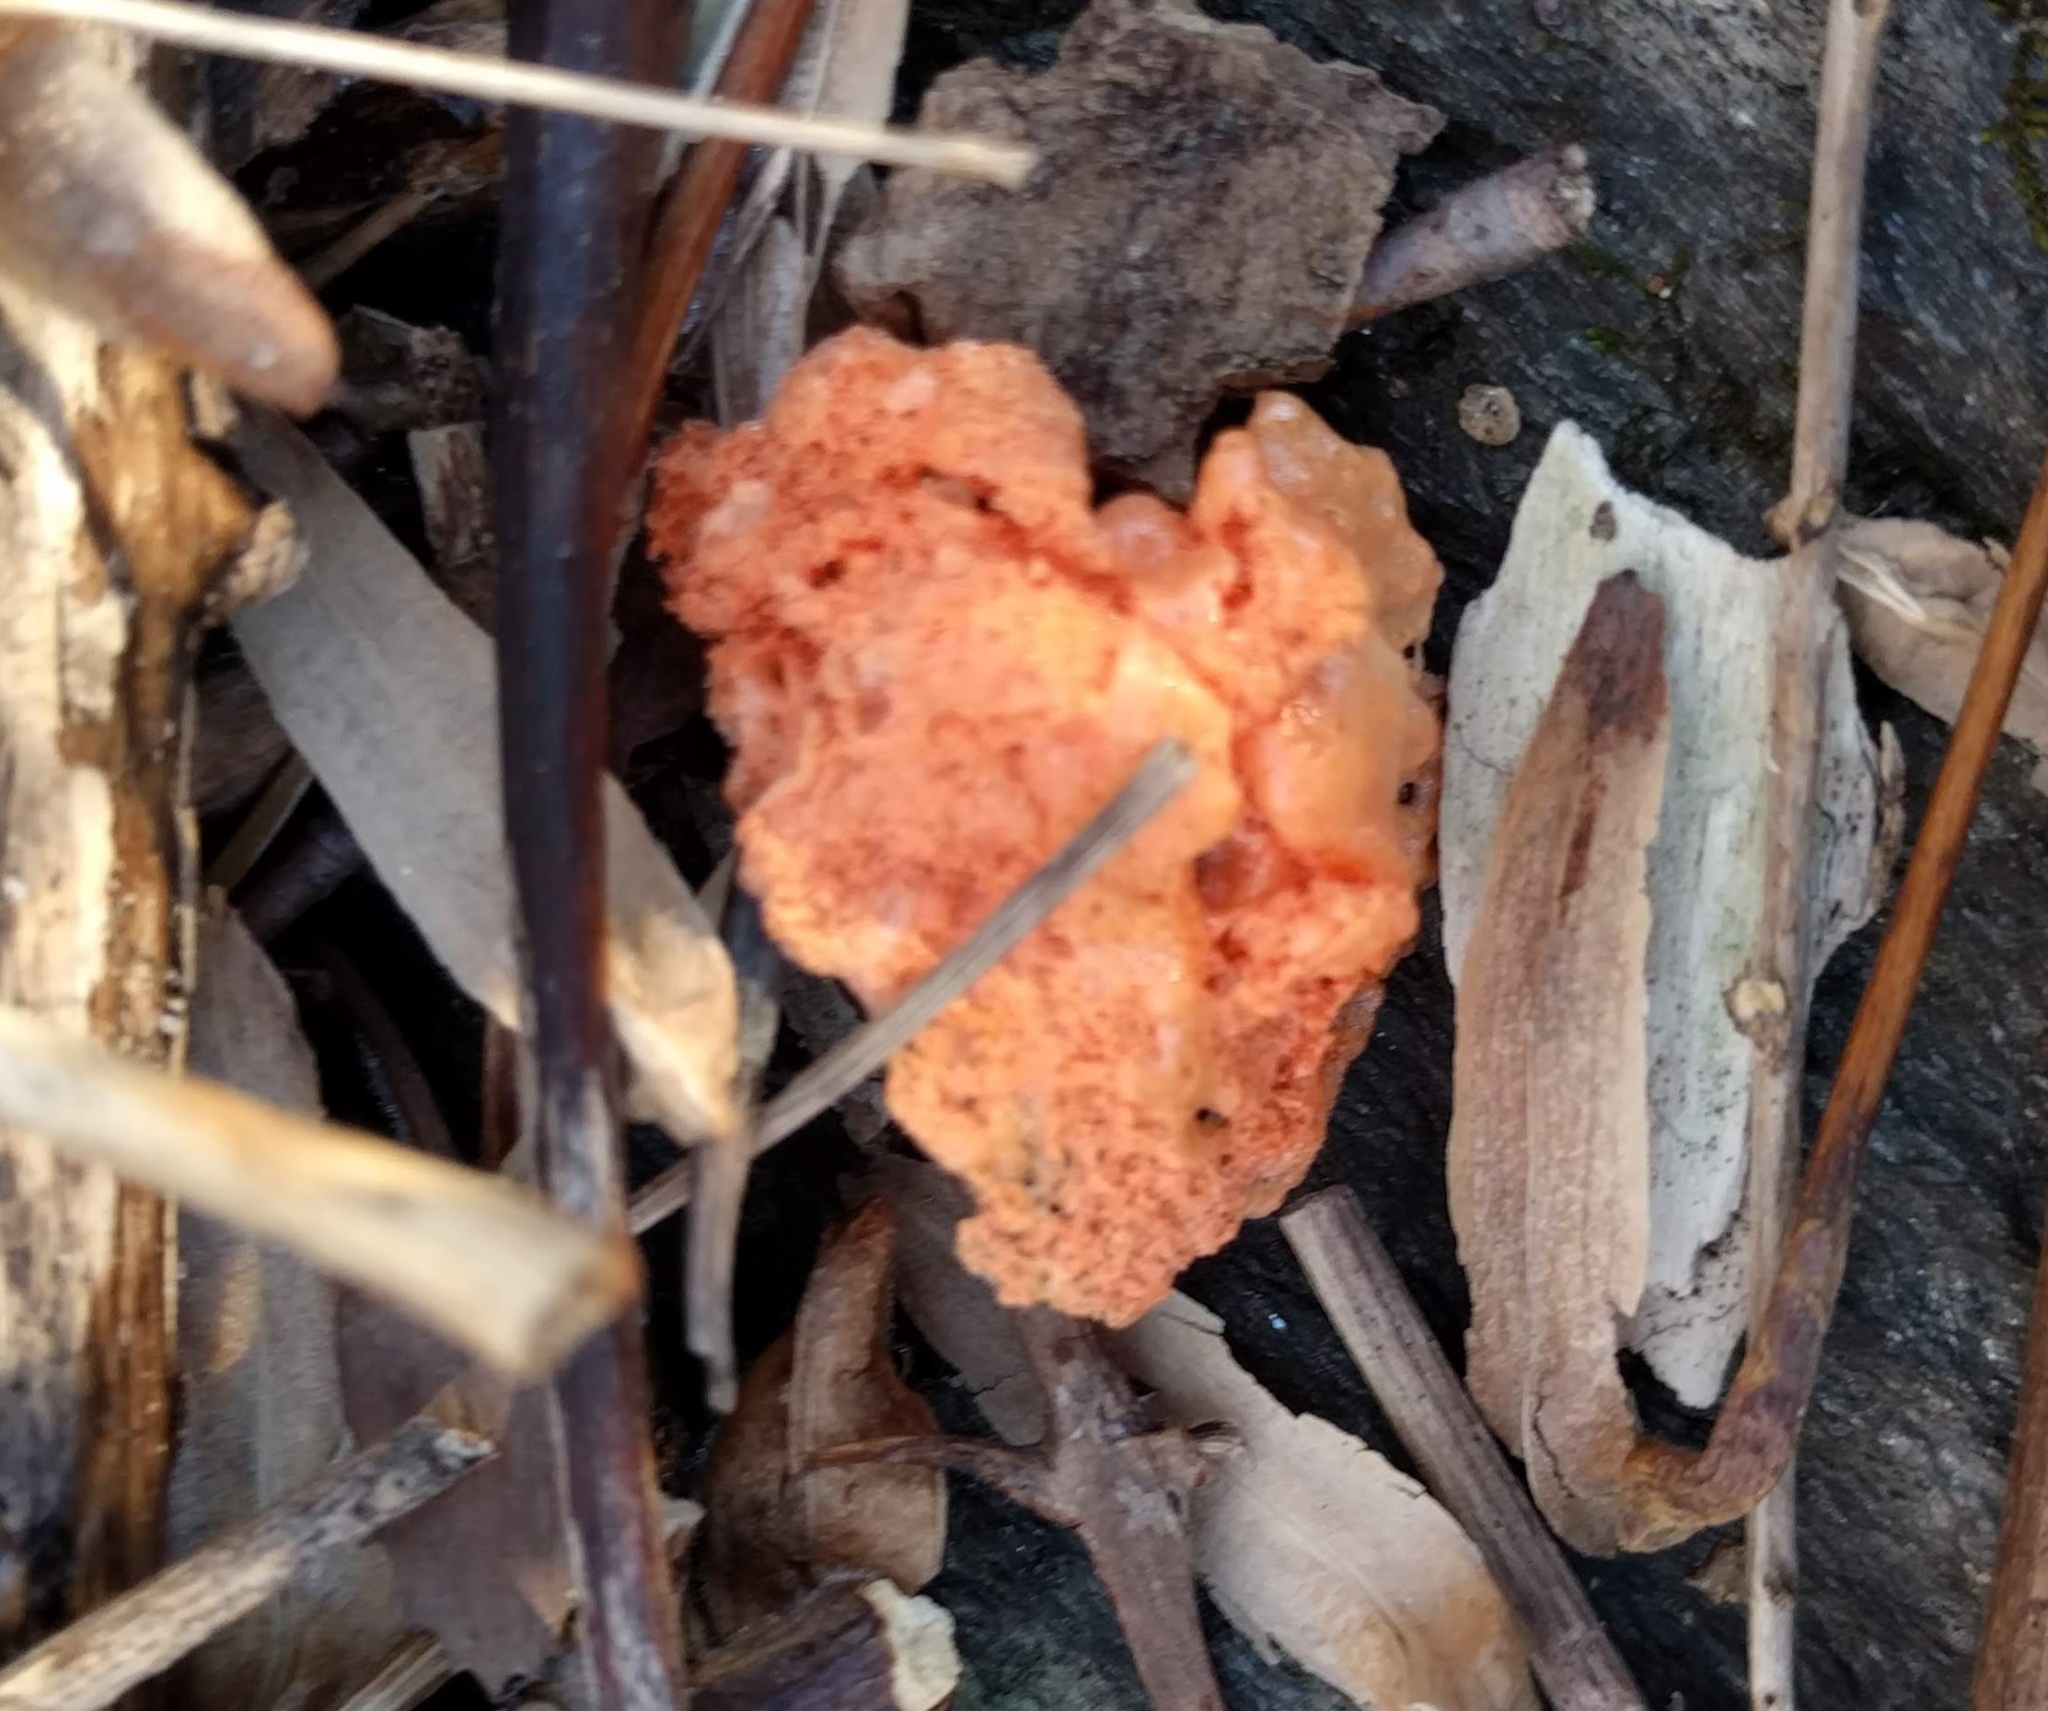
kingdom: Fungi
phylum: Basidiomycota
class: Agaricomycetes
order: Polyporales
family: Polyporaceae
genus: Trametes
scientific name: Trametes cinnabarina
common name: Northern cinnabar polypore
